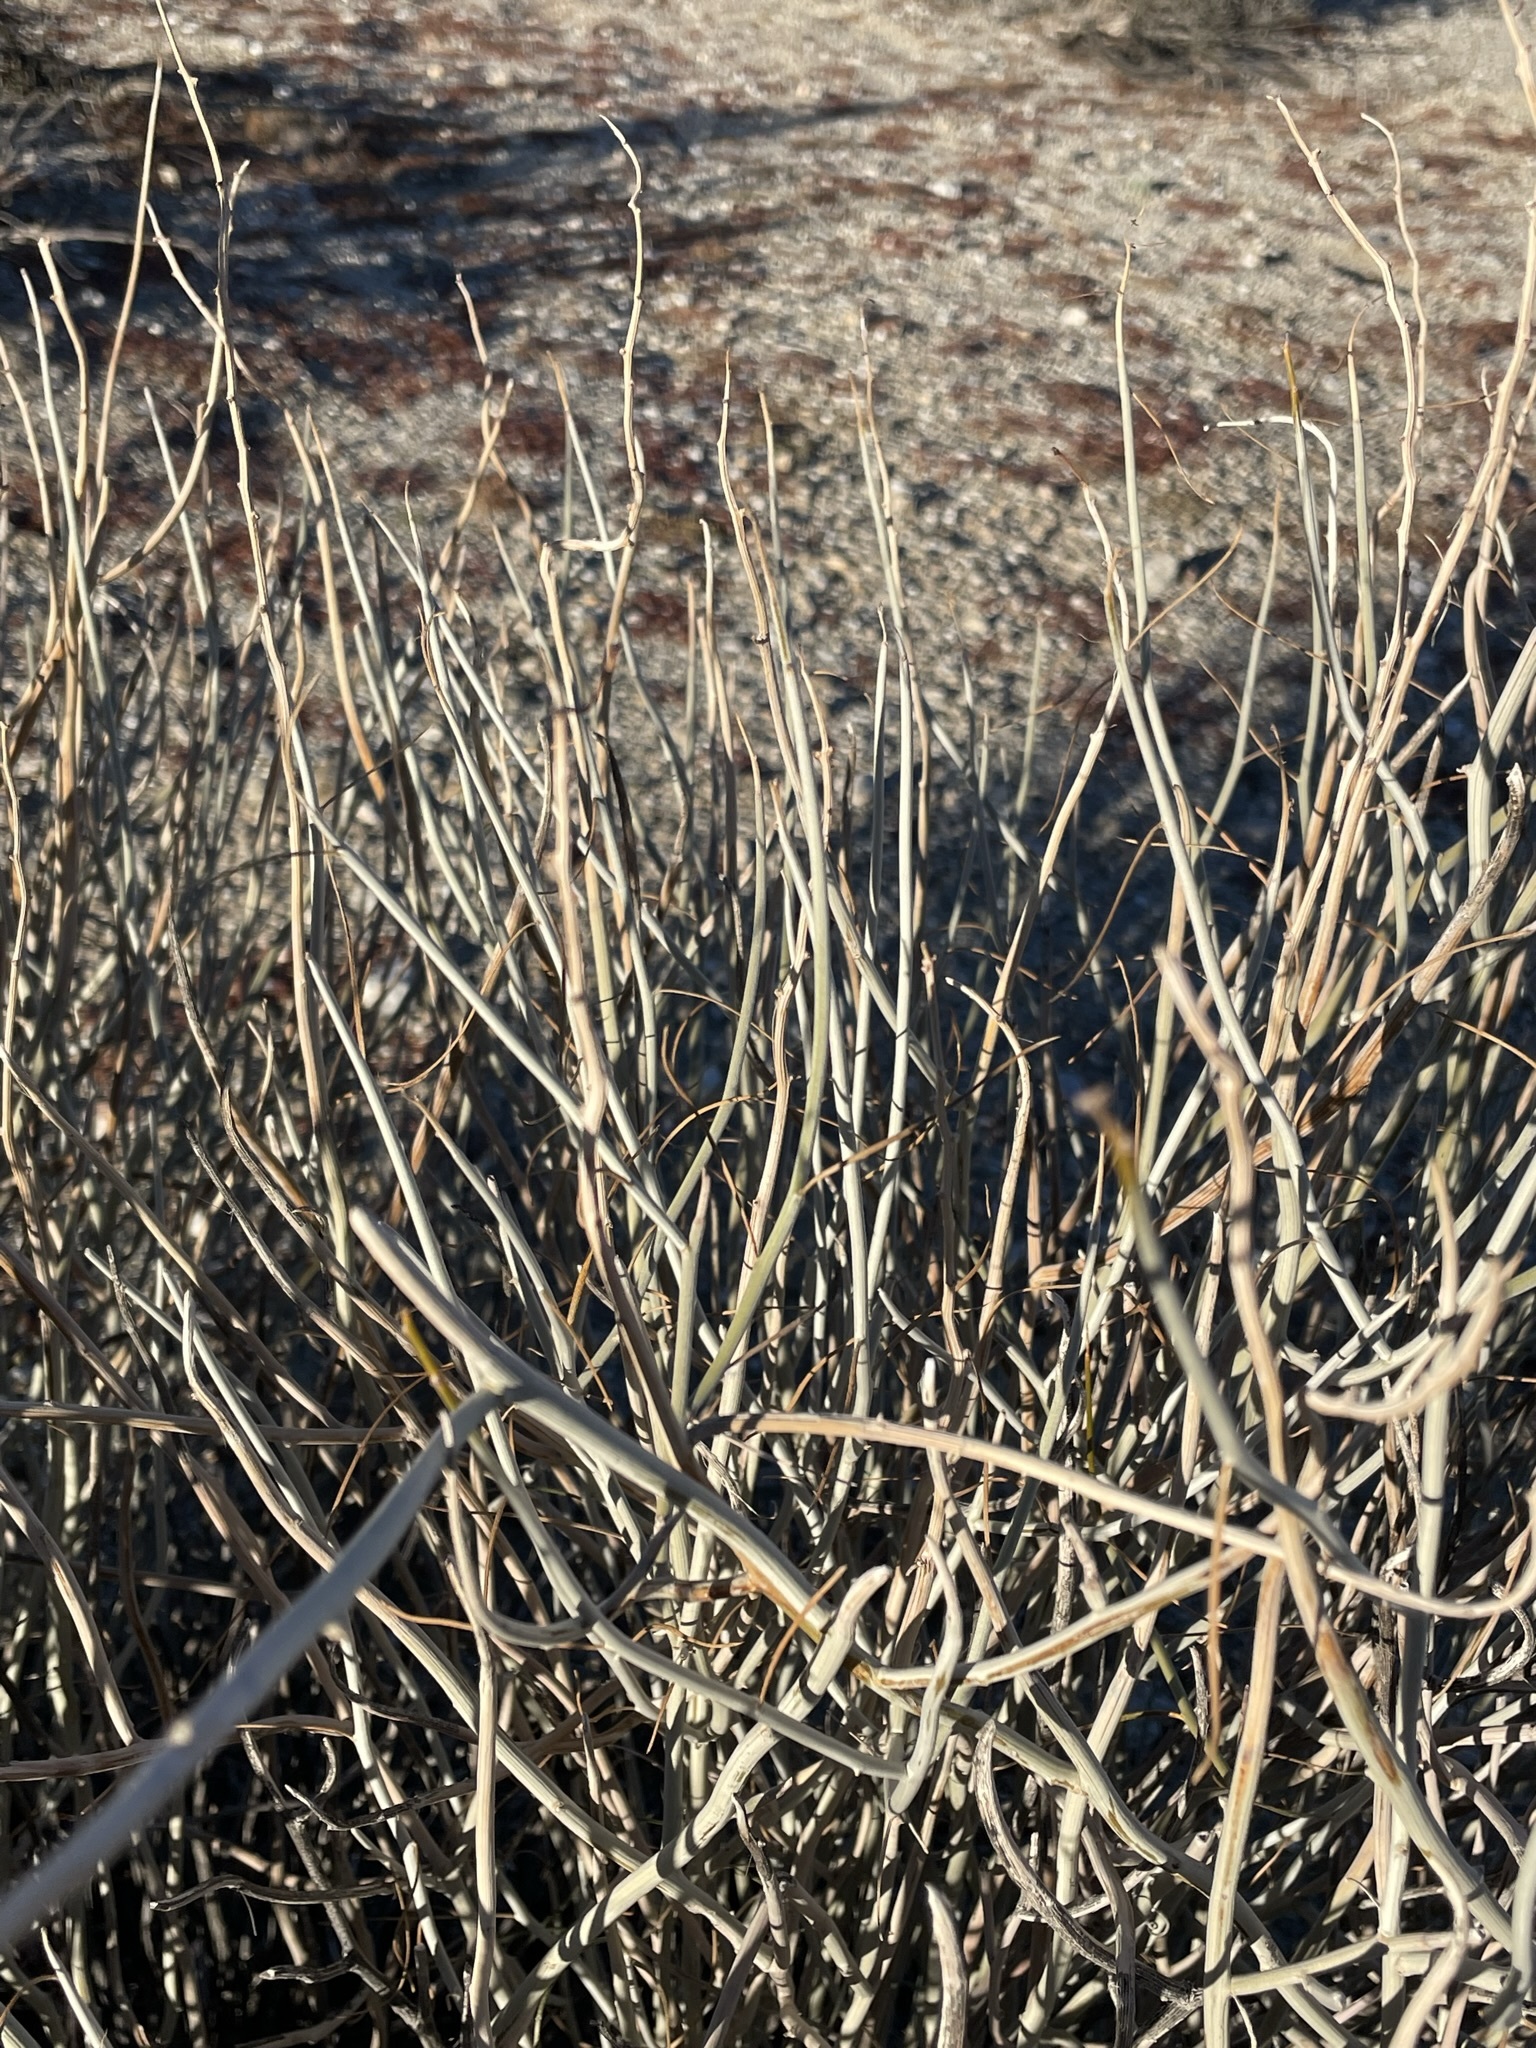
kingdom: Plantae
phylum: Tracheophyta
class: Magnoliopsida
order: Fabales
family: Fabaceae
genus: Senna
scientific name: Senna armata
